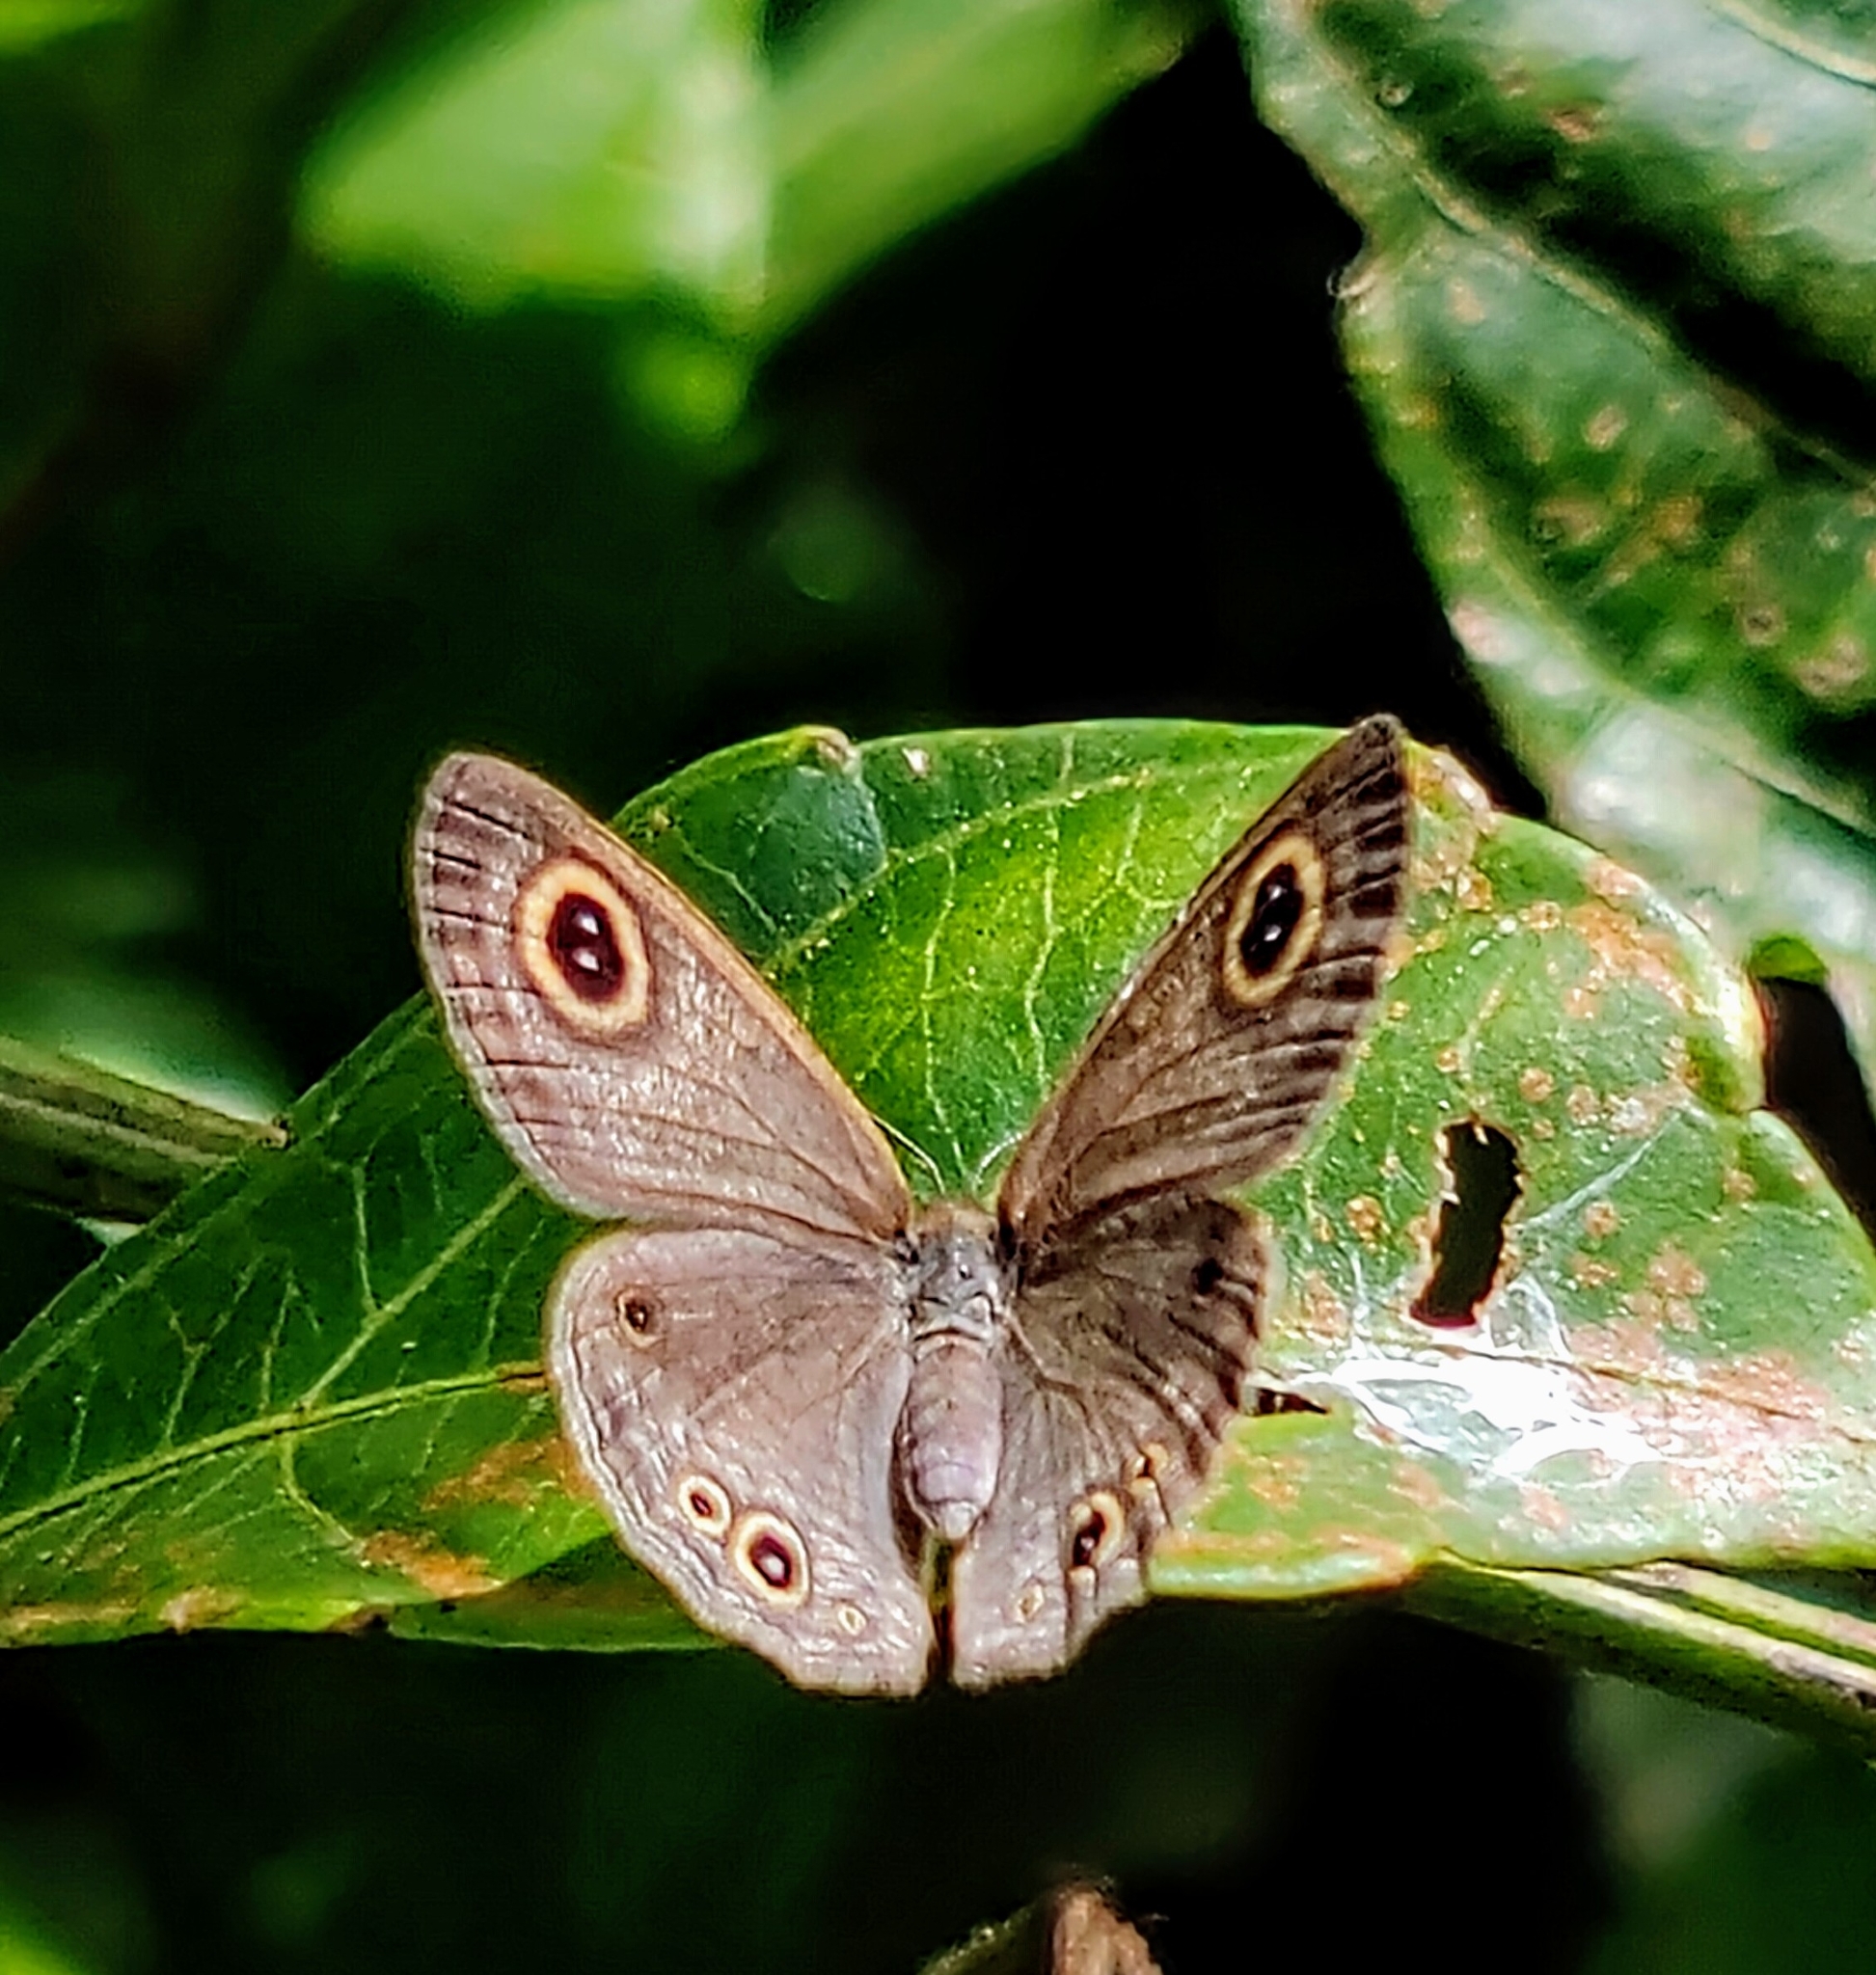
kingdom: Animalia
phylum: Arthropoda
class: Insecta
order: Lepidoptera
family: Nymphalidae
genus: Ypthima
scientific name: Ypthima huebneri
